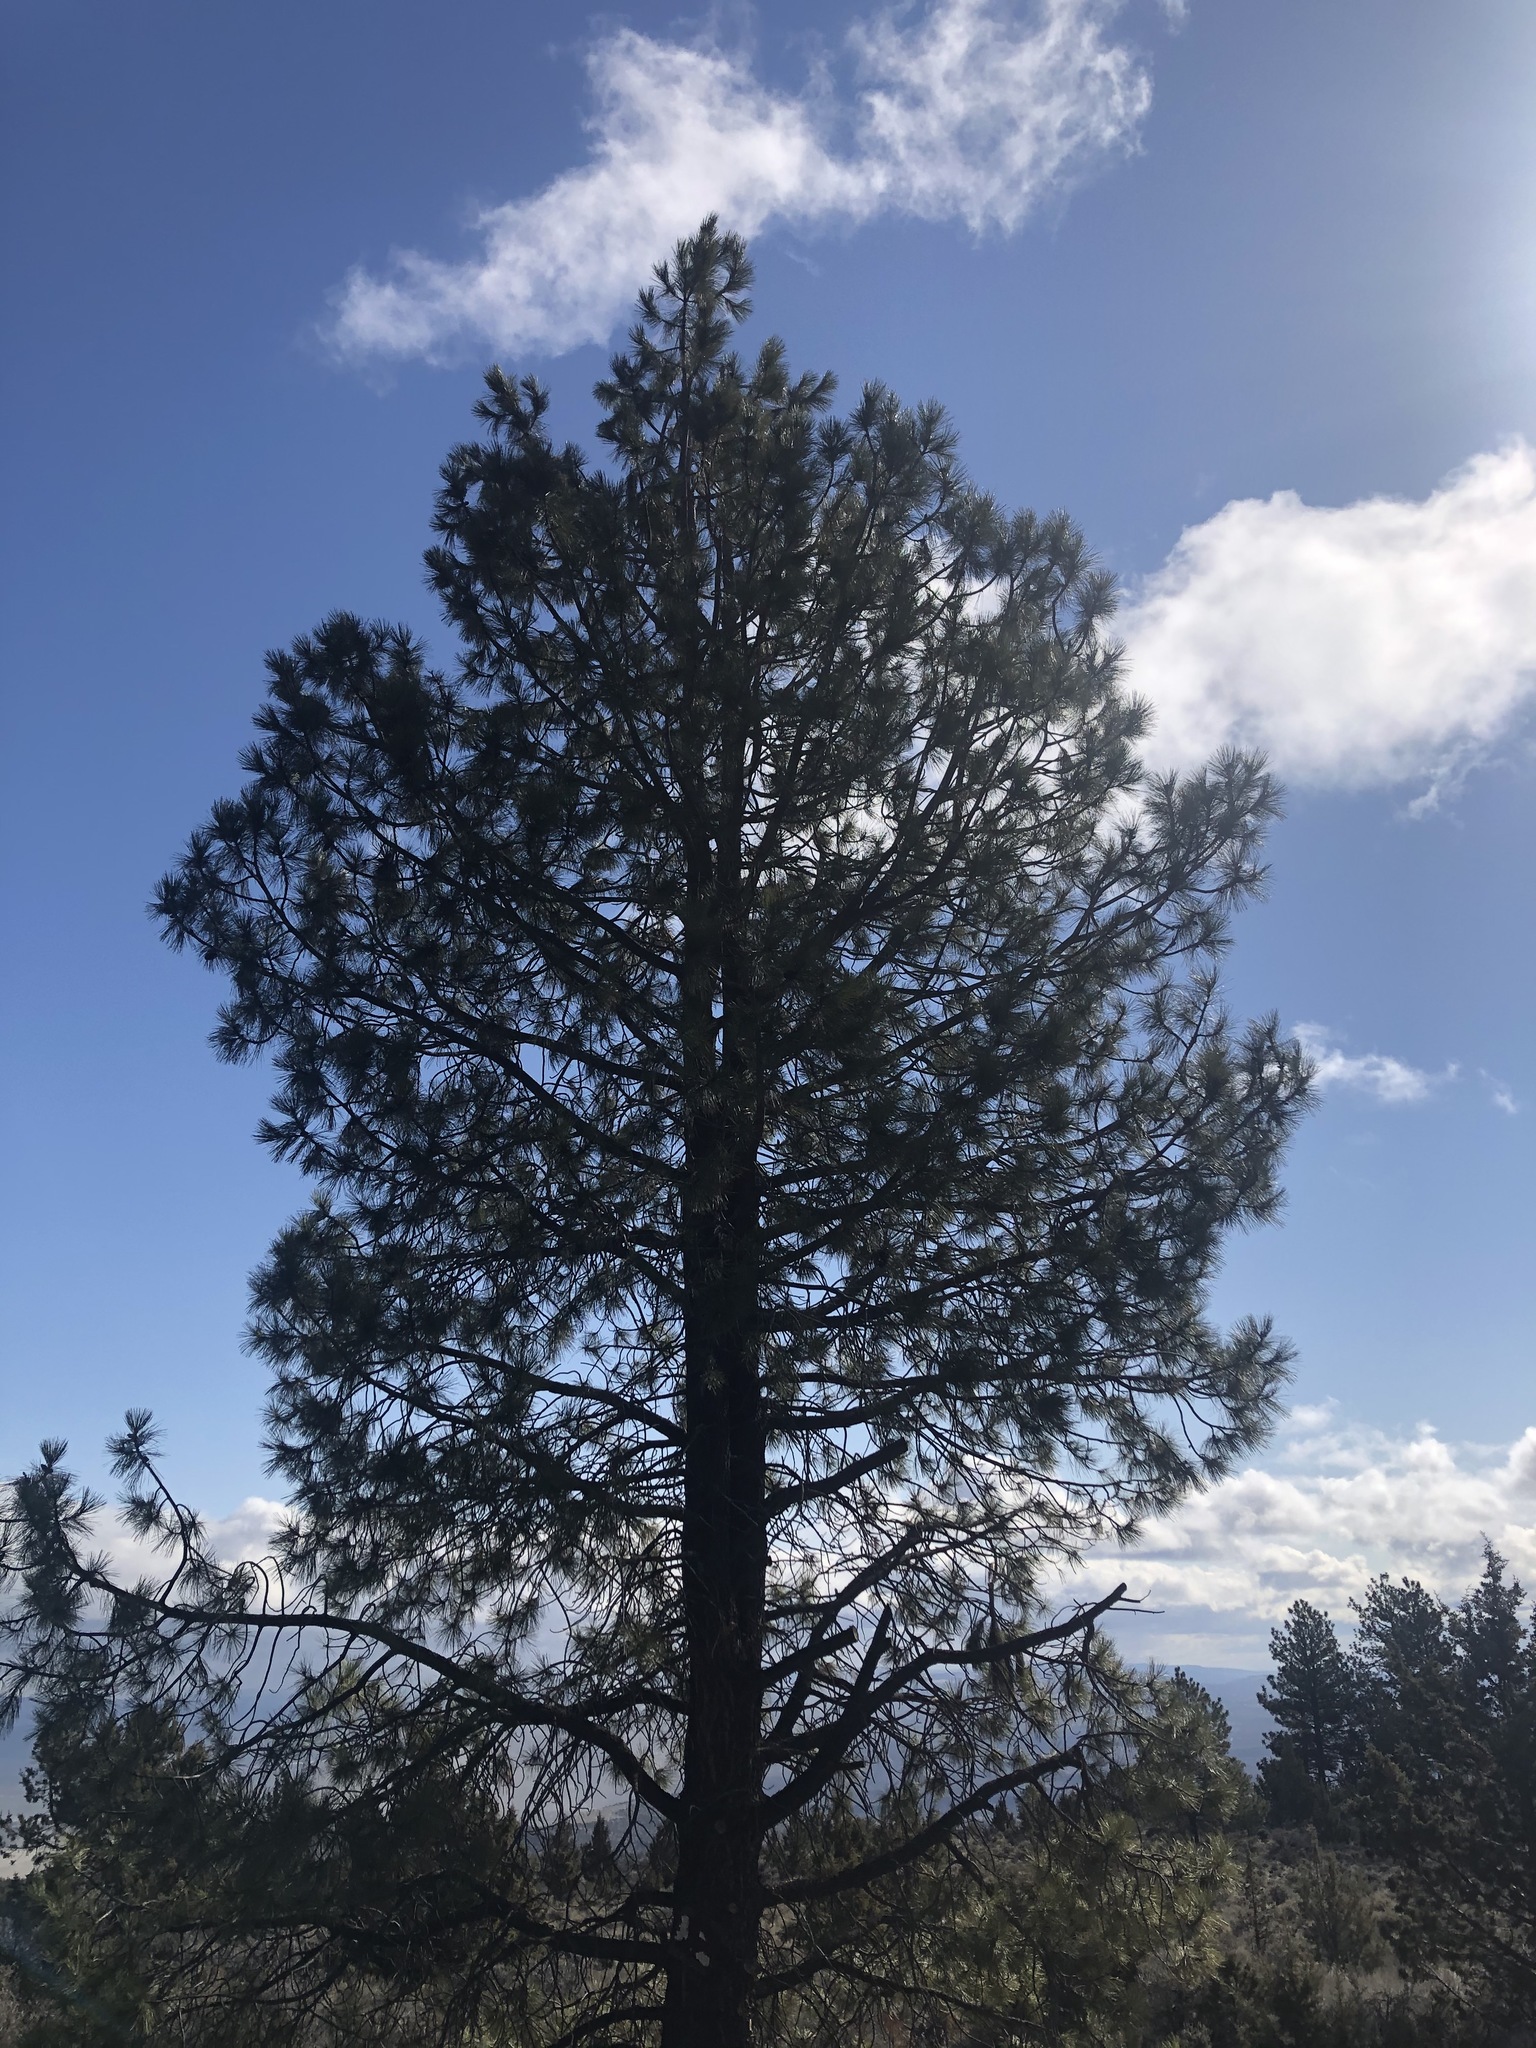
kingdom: Plantae
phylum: Tracheophyta
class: Pinopsida
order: Pinales
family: Pinaceae
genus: Pinus
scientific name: Pinus ponderosa
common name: Western yellow-pine
